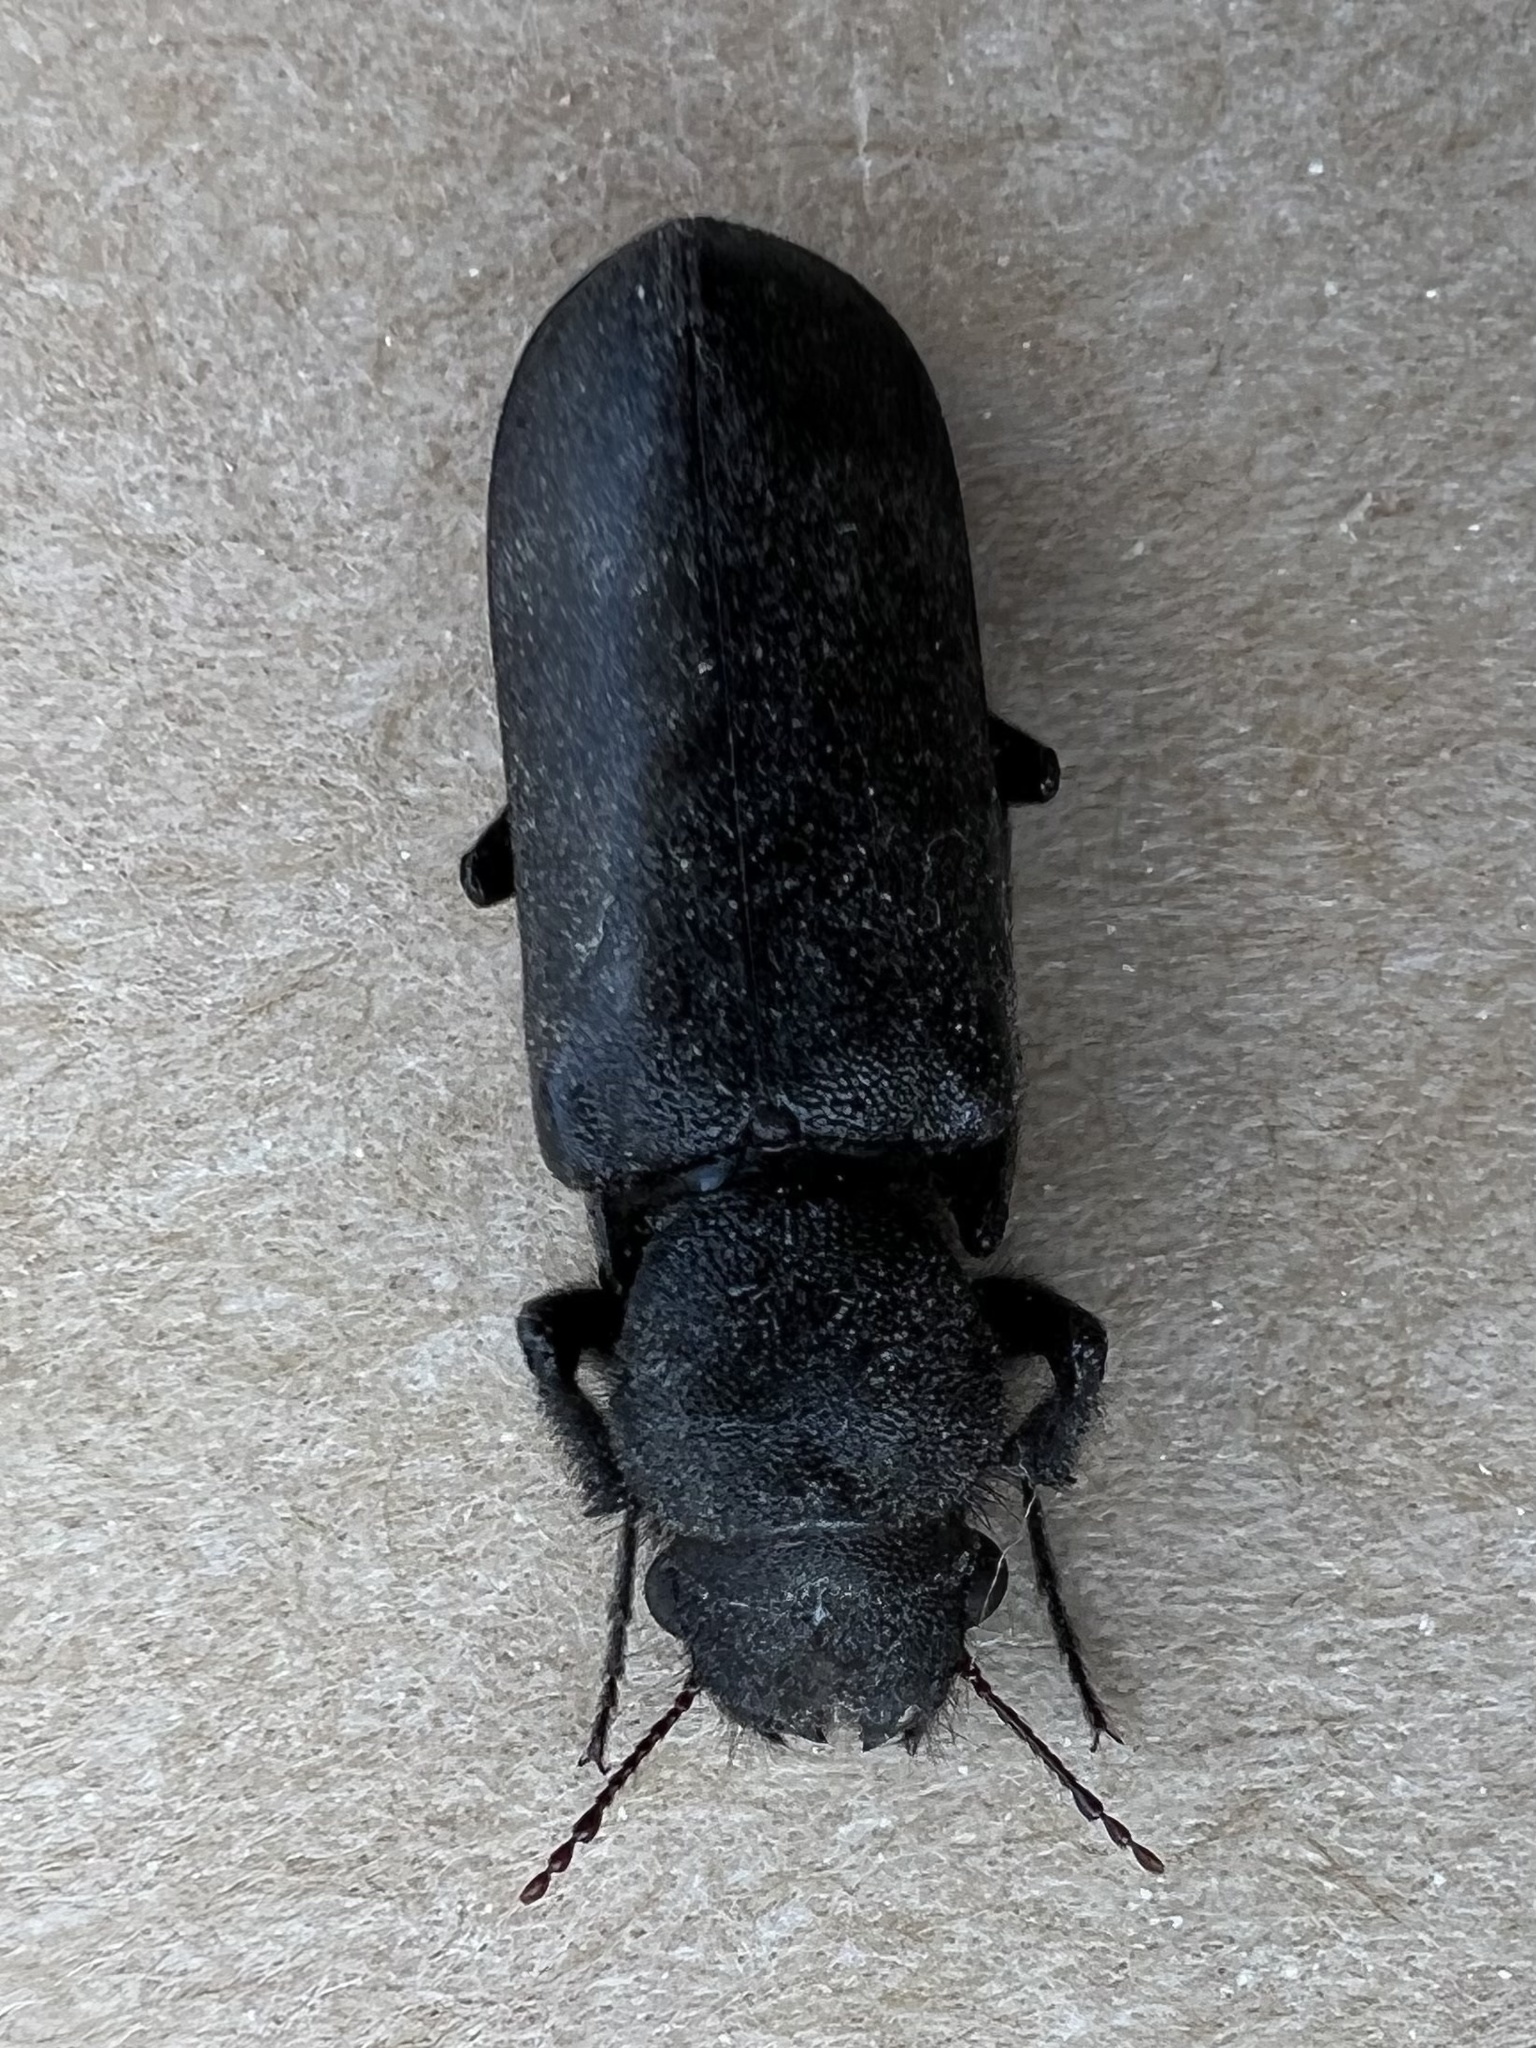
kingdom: Animalia
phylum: Arthropoda
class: Insecta
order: Coleoptera
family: Bostrichidae
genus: Polycaon
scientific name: Polycaon stoutii
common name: Powderpost beetle
